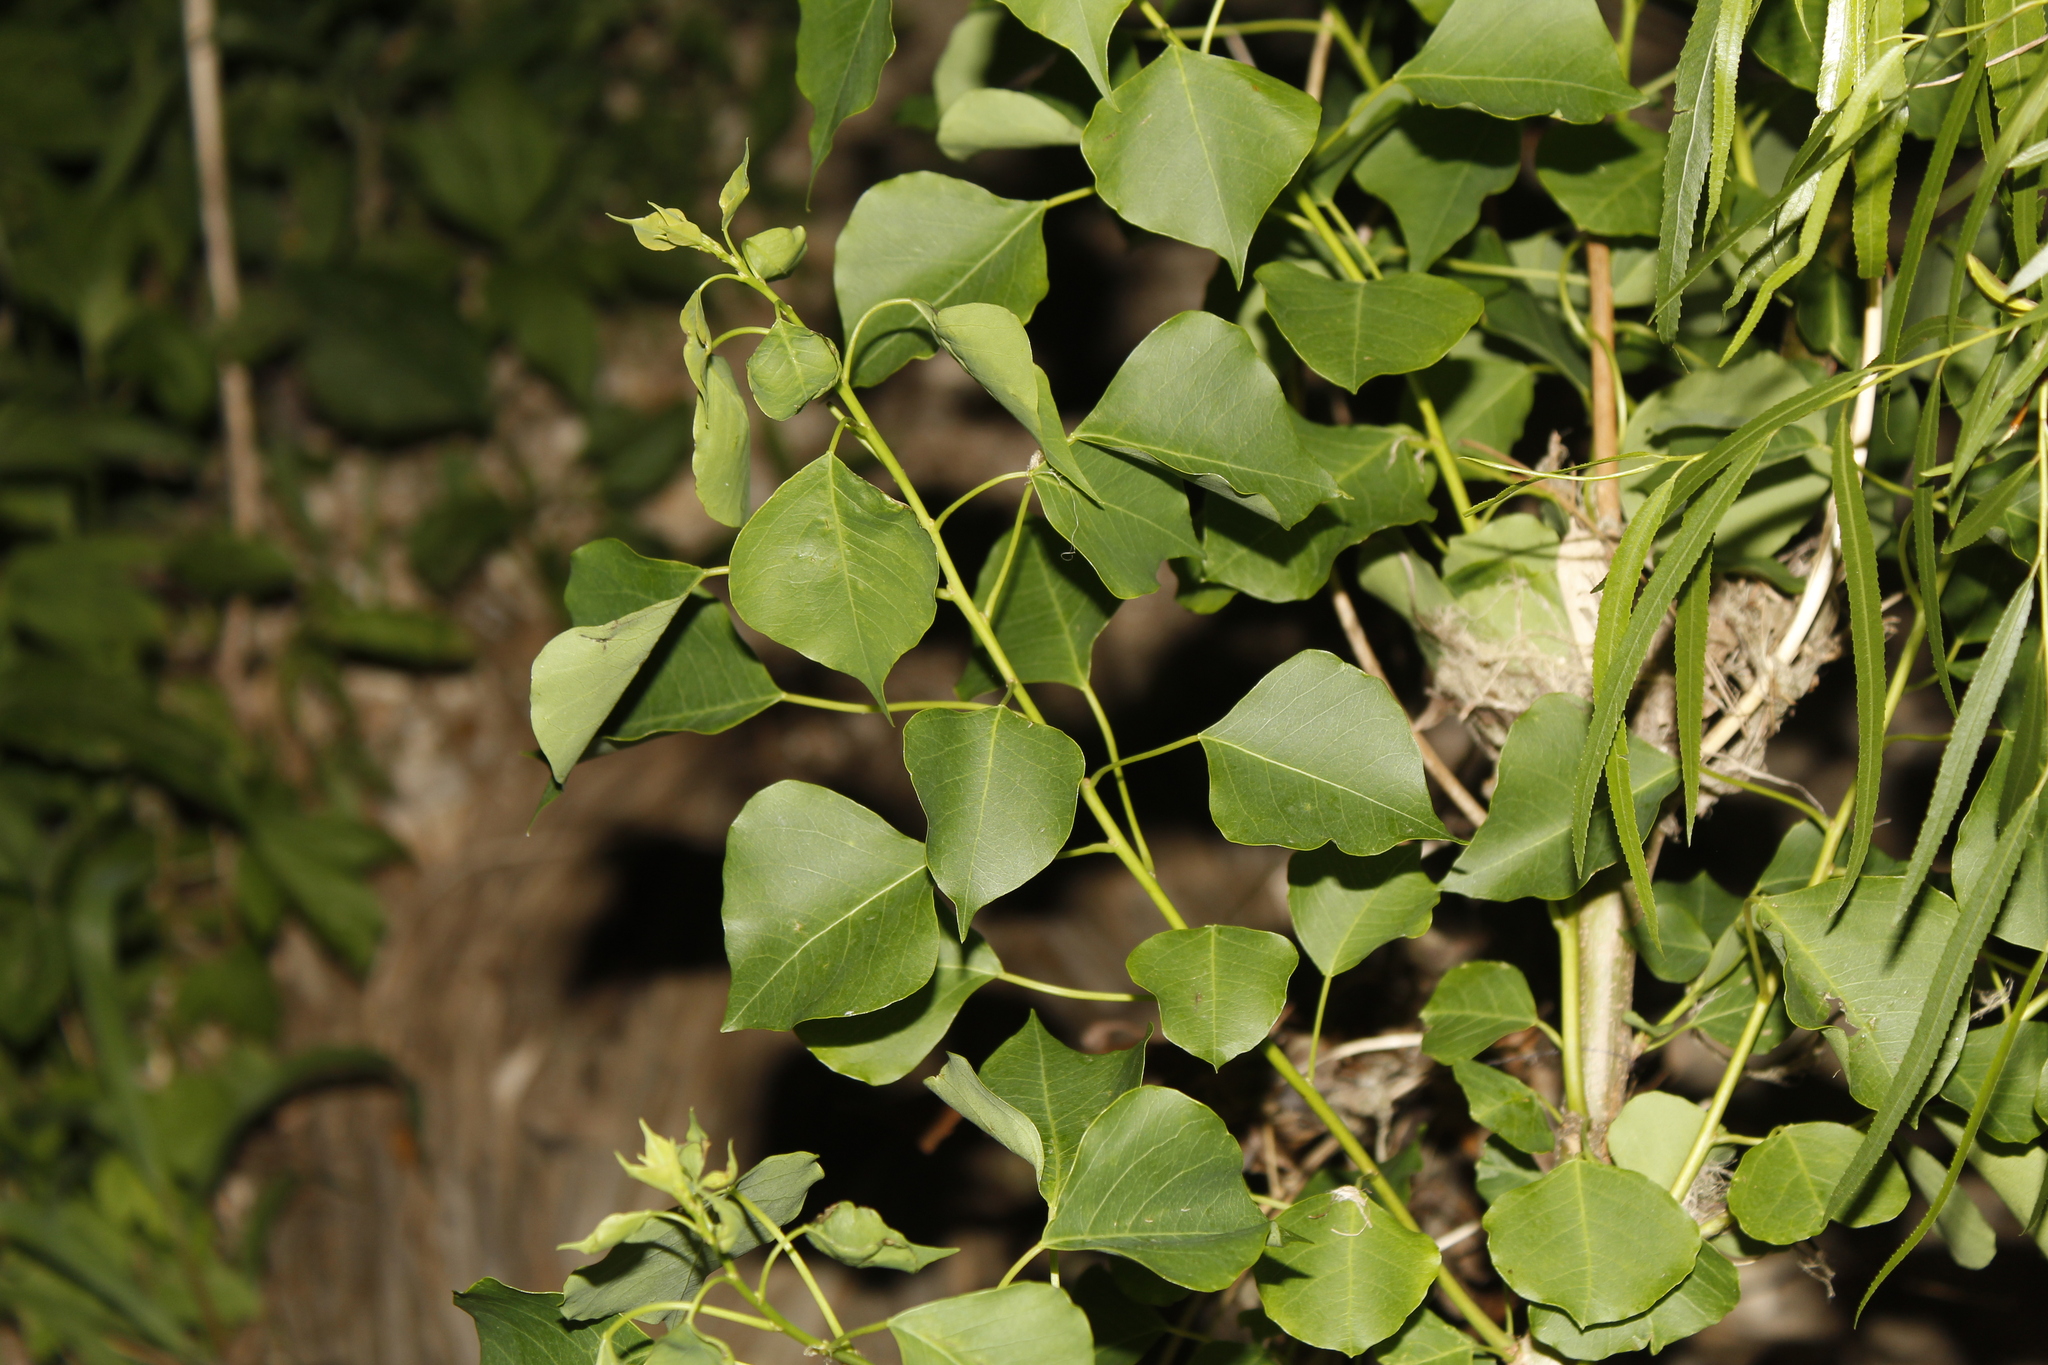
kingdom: Plantae
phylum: Tracheophyta
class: Magnoliopsida
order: Malpighiales
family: Euphorbiaceae
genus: Triadica
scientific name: Triadica sebifera
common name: Chinese tallow
